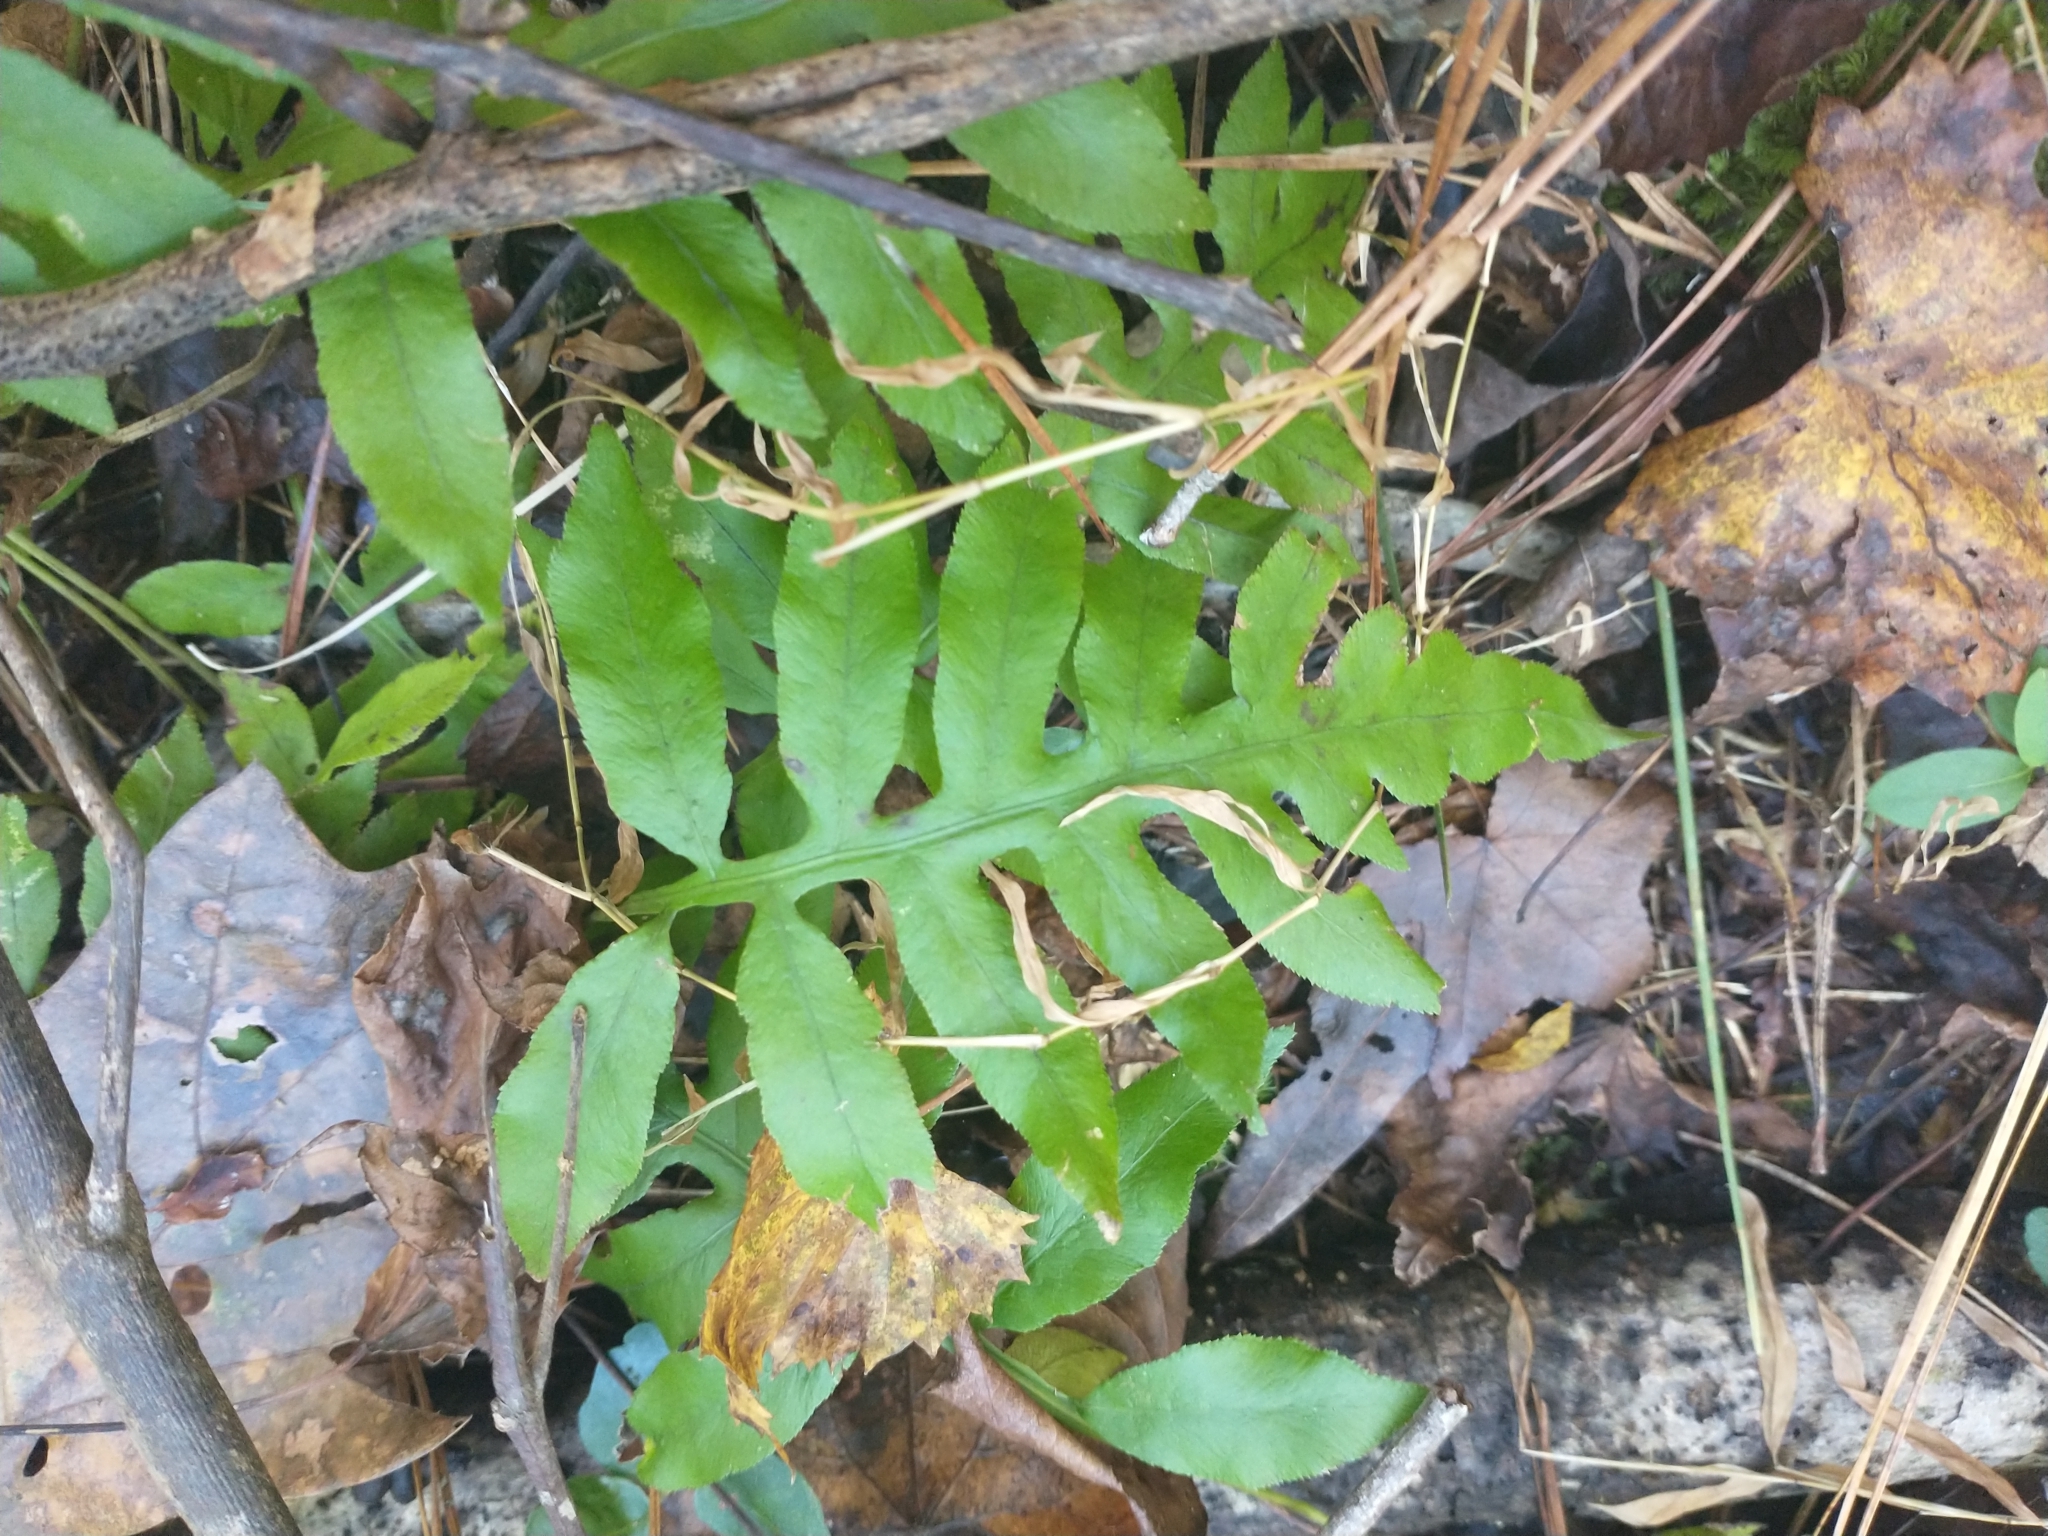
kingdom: Plantae
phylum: Tracheophyta
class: Polypodiopsida
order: Polypodiales
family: Blechnaceae
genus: Lorinseria
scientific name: Lorinseria areolata
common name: Dwarf chain fern
